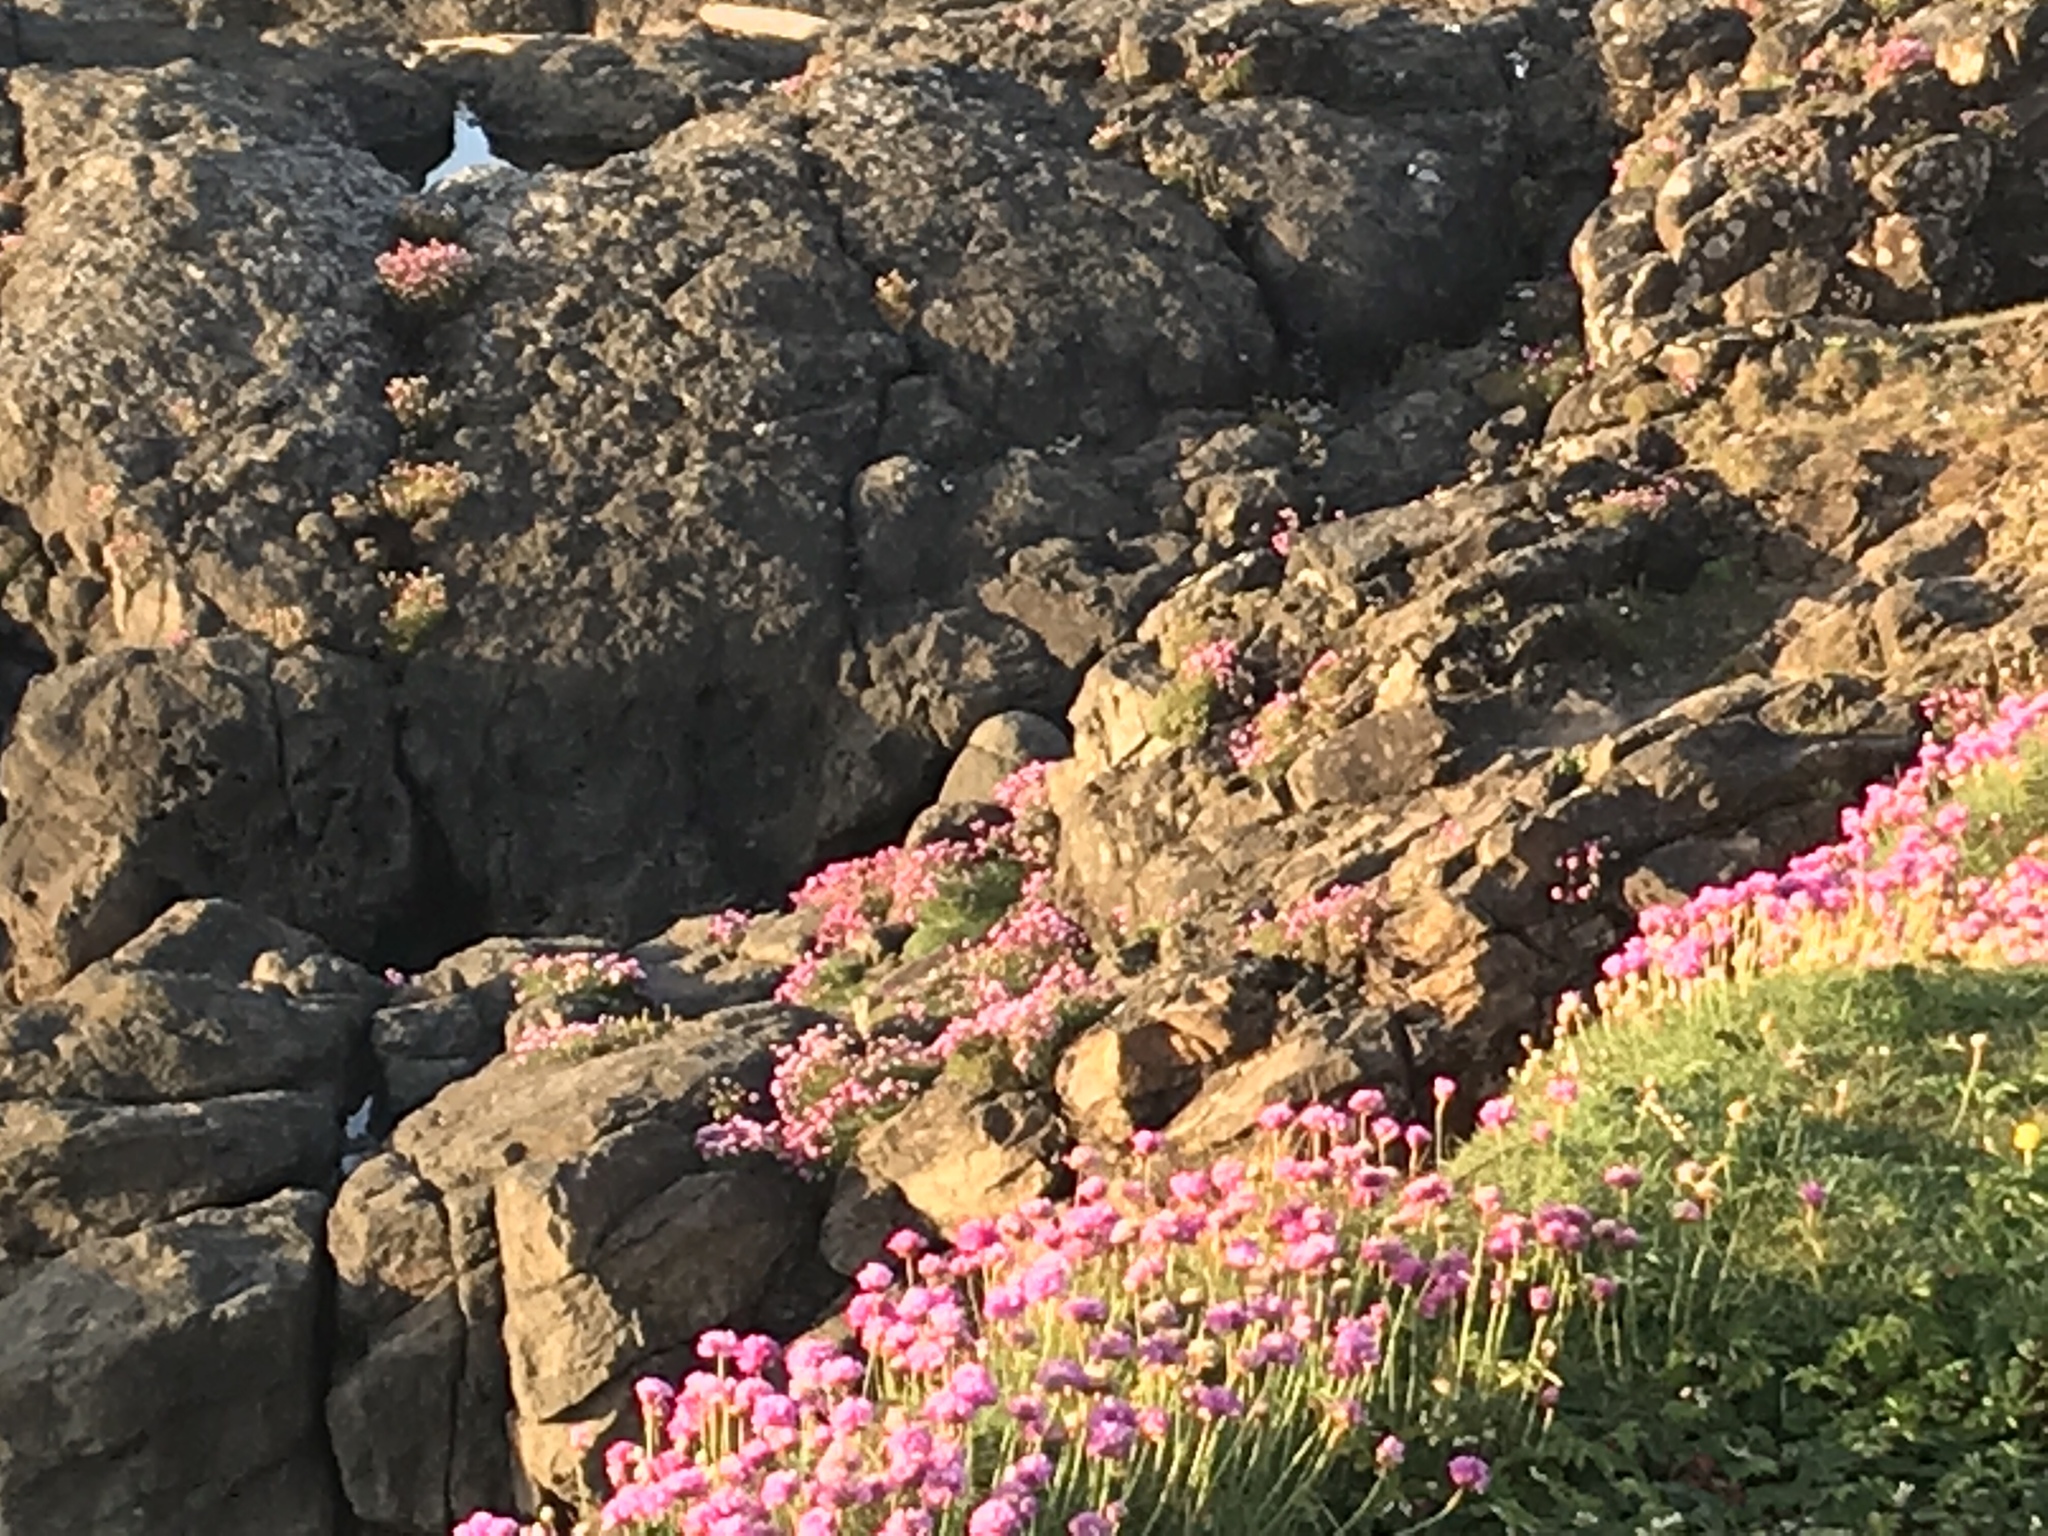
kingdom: Plantae
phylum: Tracheophyta
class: Magnoliopsida
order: Caryophyllales
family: Plumbaginaceae
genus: Armeria
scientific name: Armeria maritima
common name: Thrift
